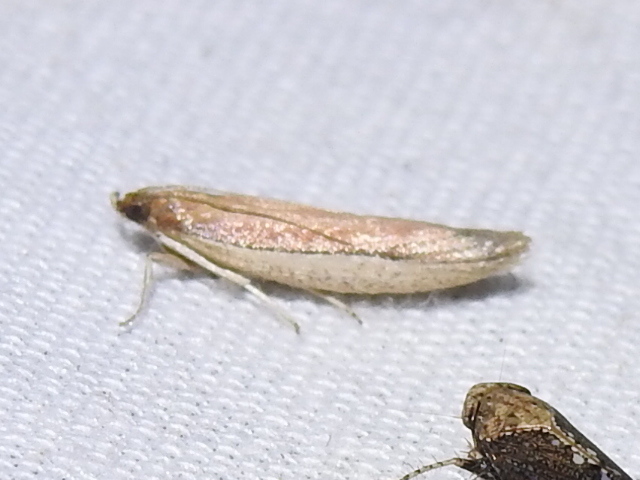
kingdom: Animalia
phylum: Arthropoda
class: Insecta
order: Lepidoptera
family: Pyralidae
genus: Tampa
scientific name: Tampa dimediatella
